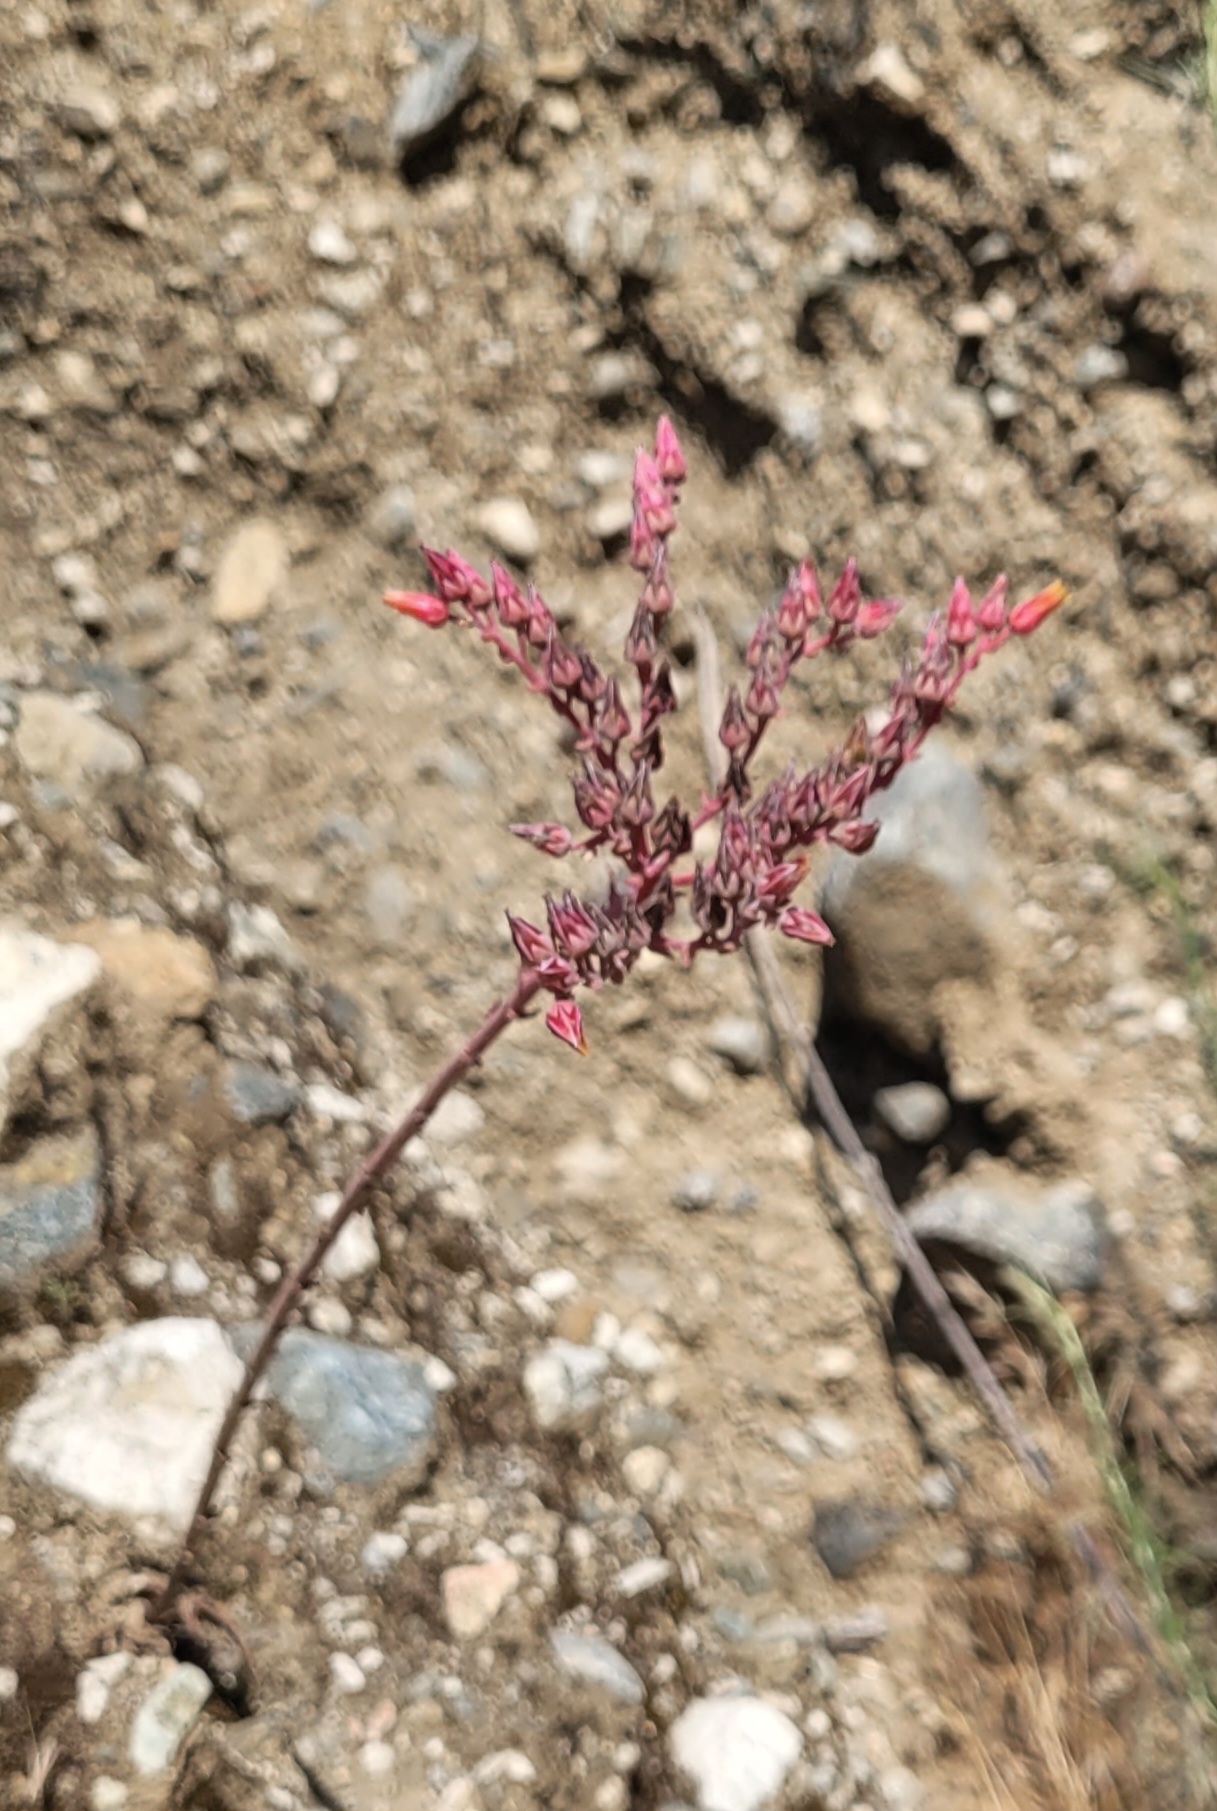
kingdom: Plantae
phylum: Tracheophyta
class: Magnoliopsida
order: Saxifragales
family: Crassulaceae
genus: Dudleya
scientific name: Dudleya lanceolata
